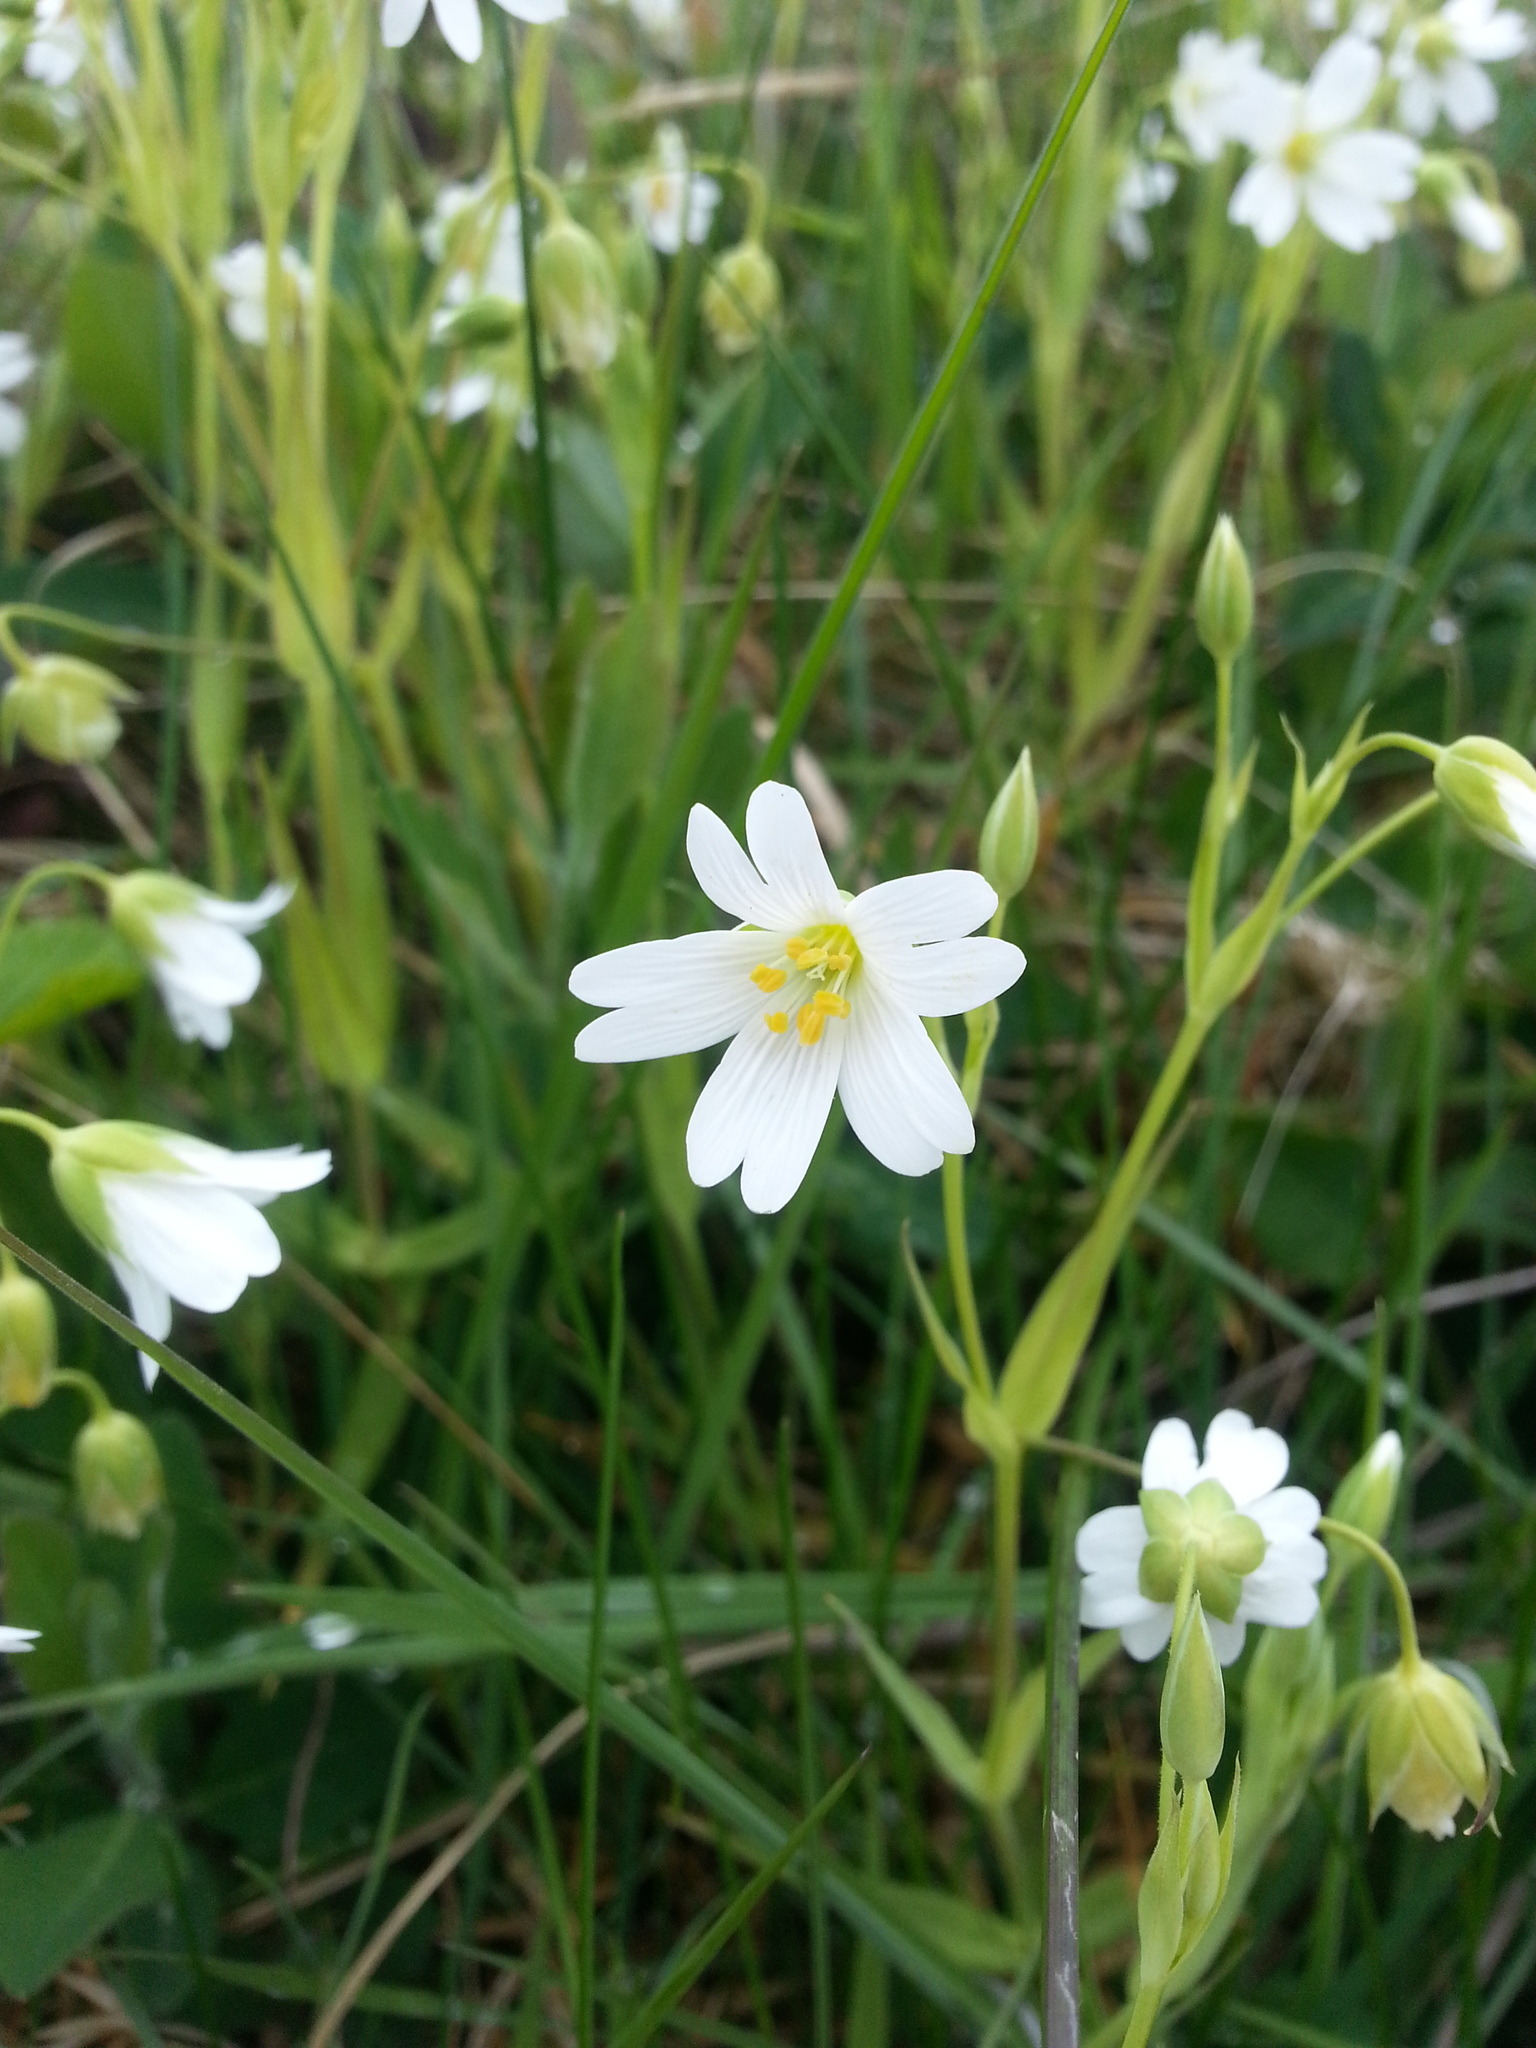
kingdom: Plantae
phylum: Tracheophyta
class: Magnoliopsida
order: Caryophyllales
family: Caryophyllaceae
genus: Rabelera
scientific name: Rabelera holostea
